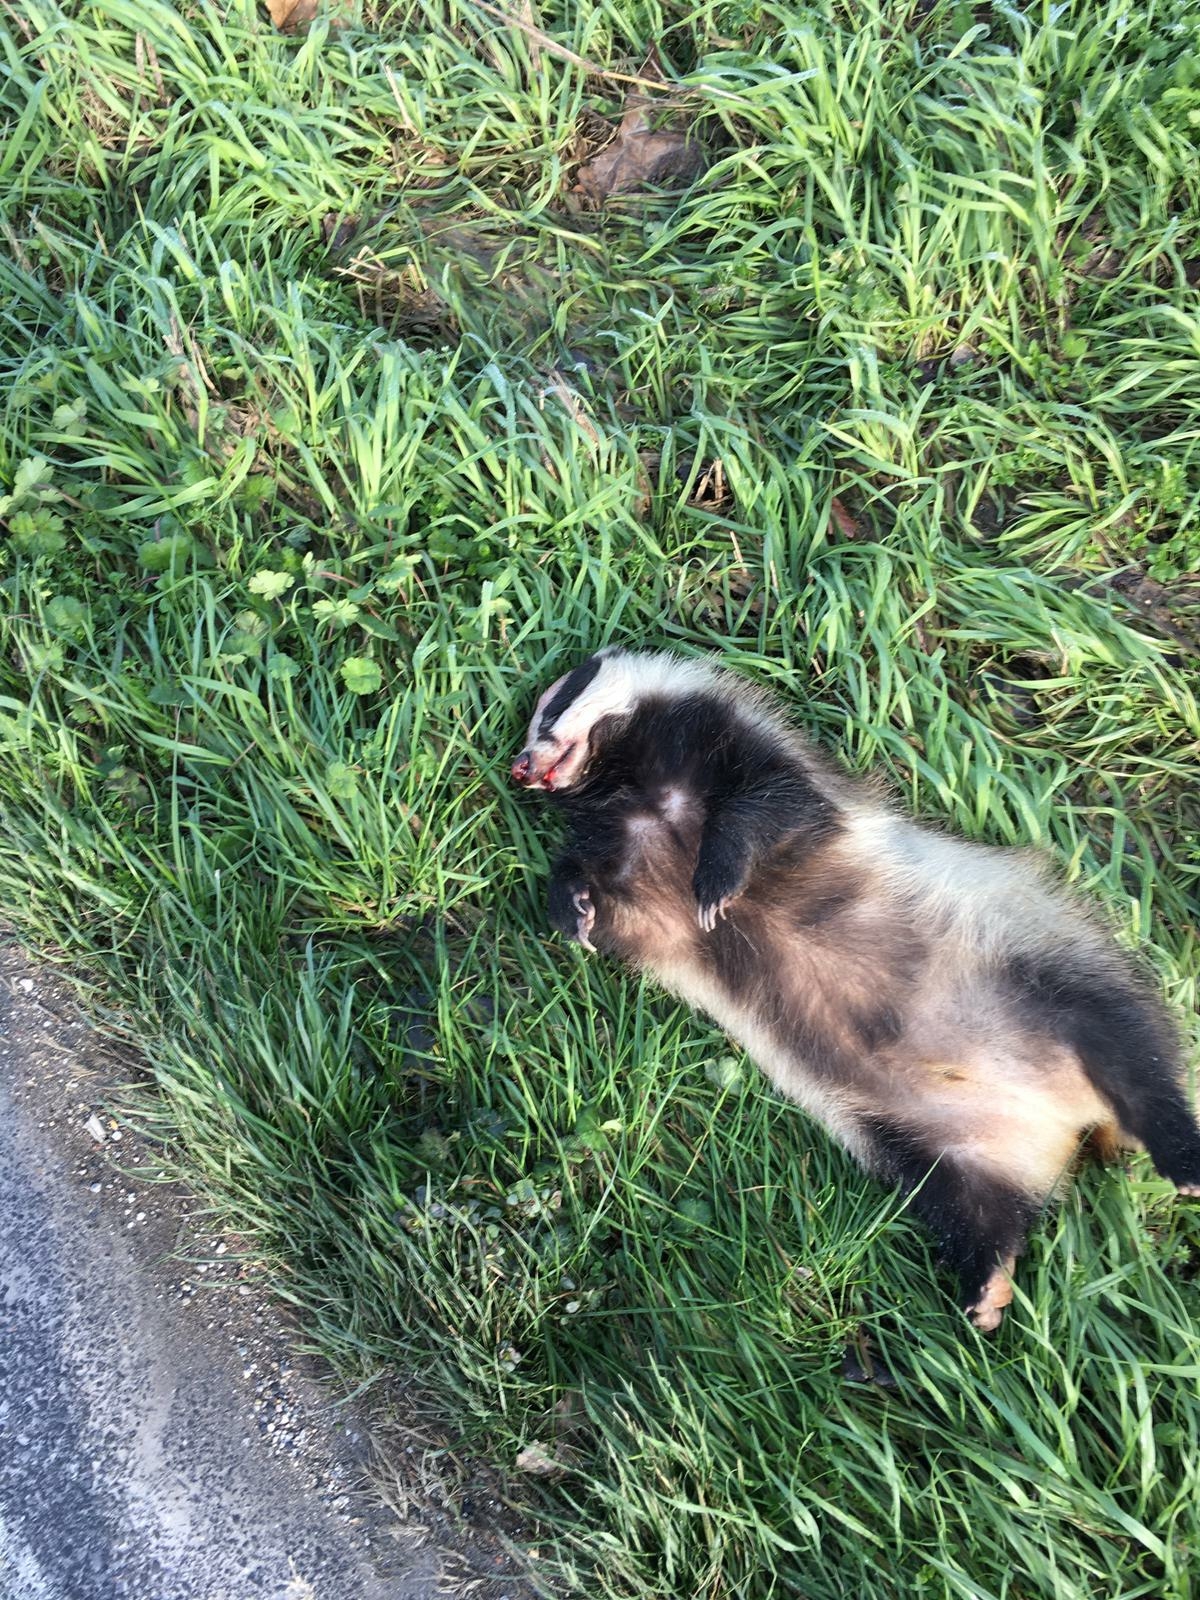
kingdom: Animalia
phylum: Chordata
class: Mammalia
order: Carnivora
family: Mustelidae
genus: Meles
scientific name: Meles meles
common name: Eurasian badger
